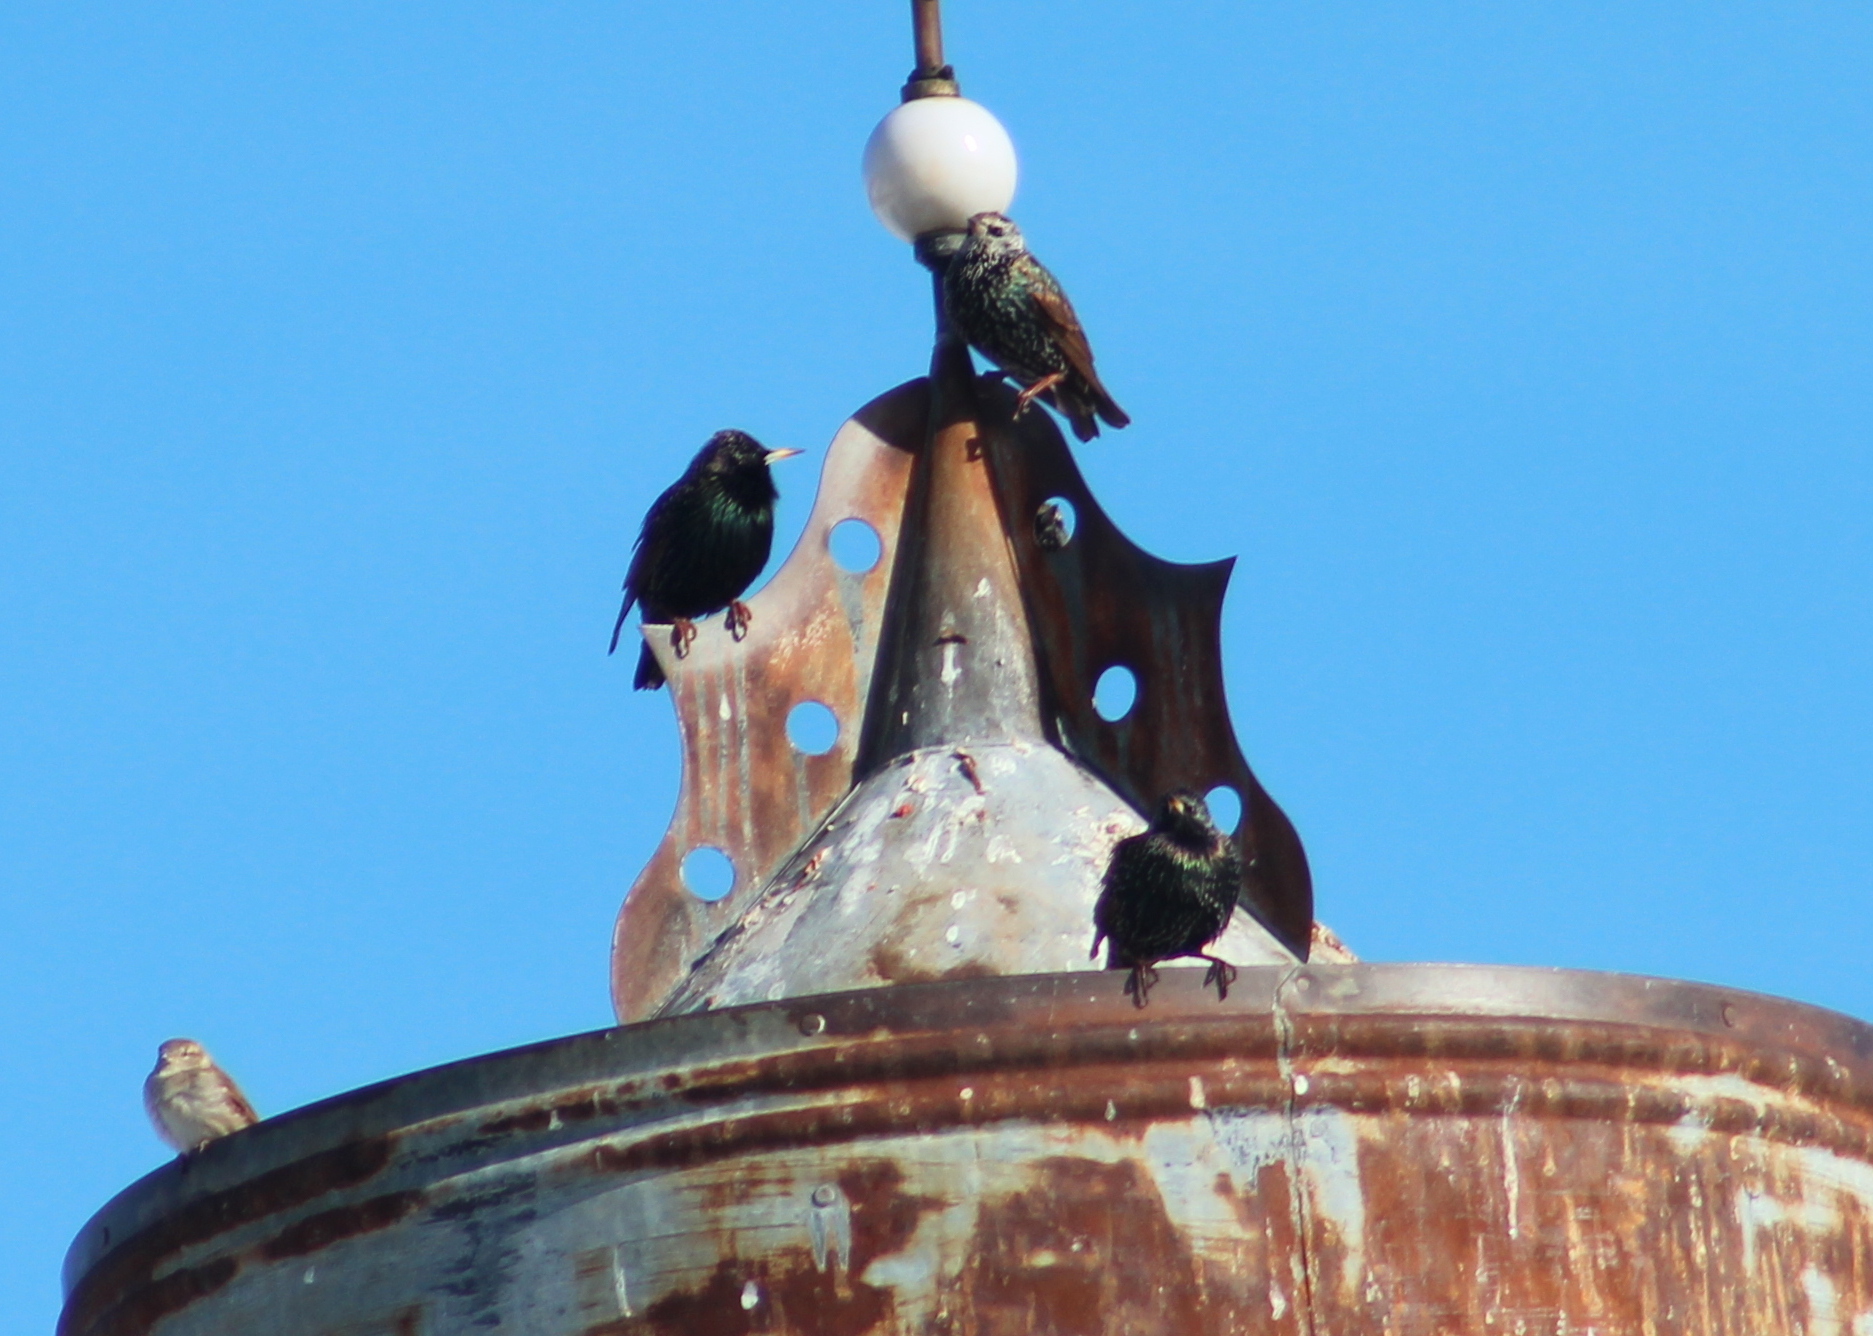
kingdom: Animalia
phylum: Chordata
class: Aves
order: Passeriformes
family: Sturnidae
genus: Sturnus
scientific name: Sturnus vulgaris
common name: Common starling
